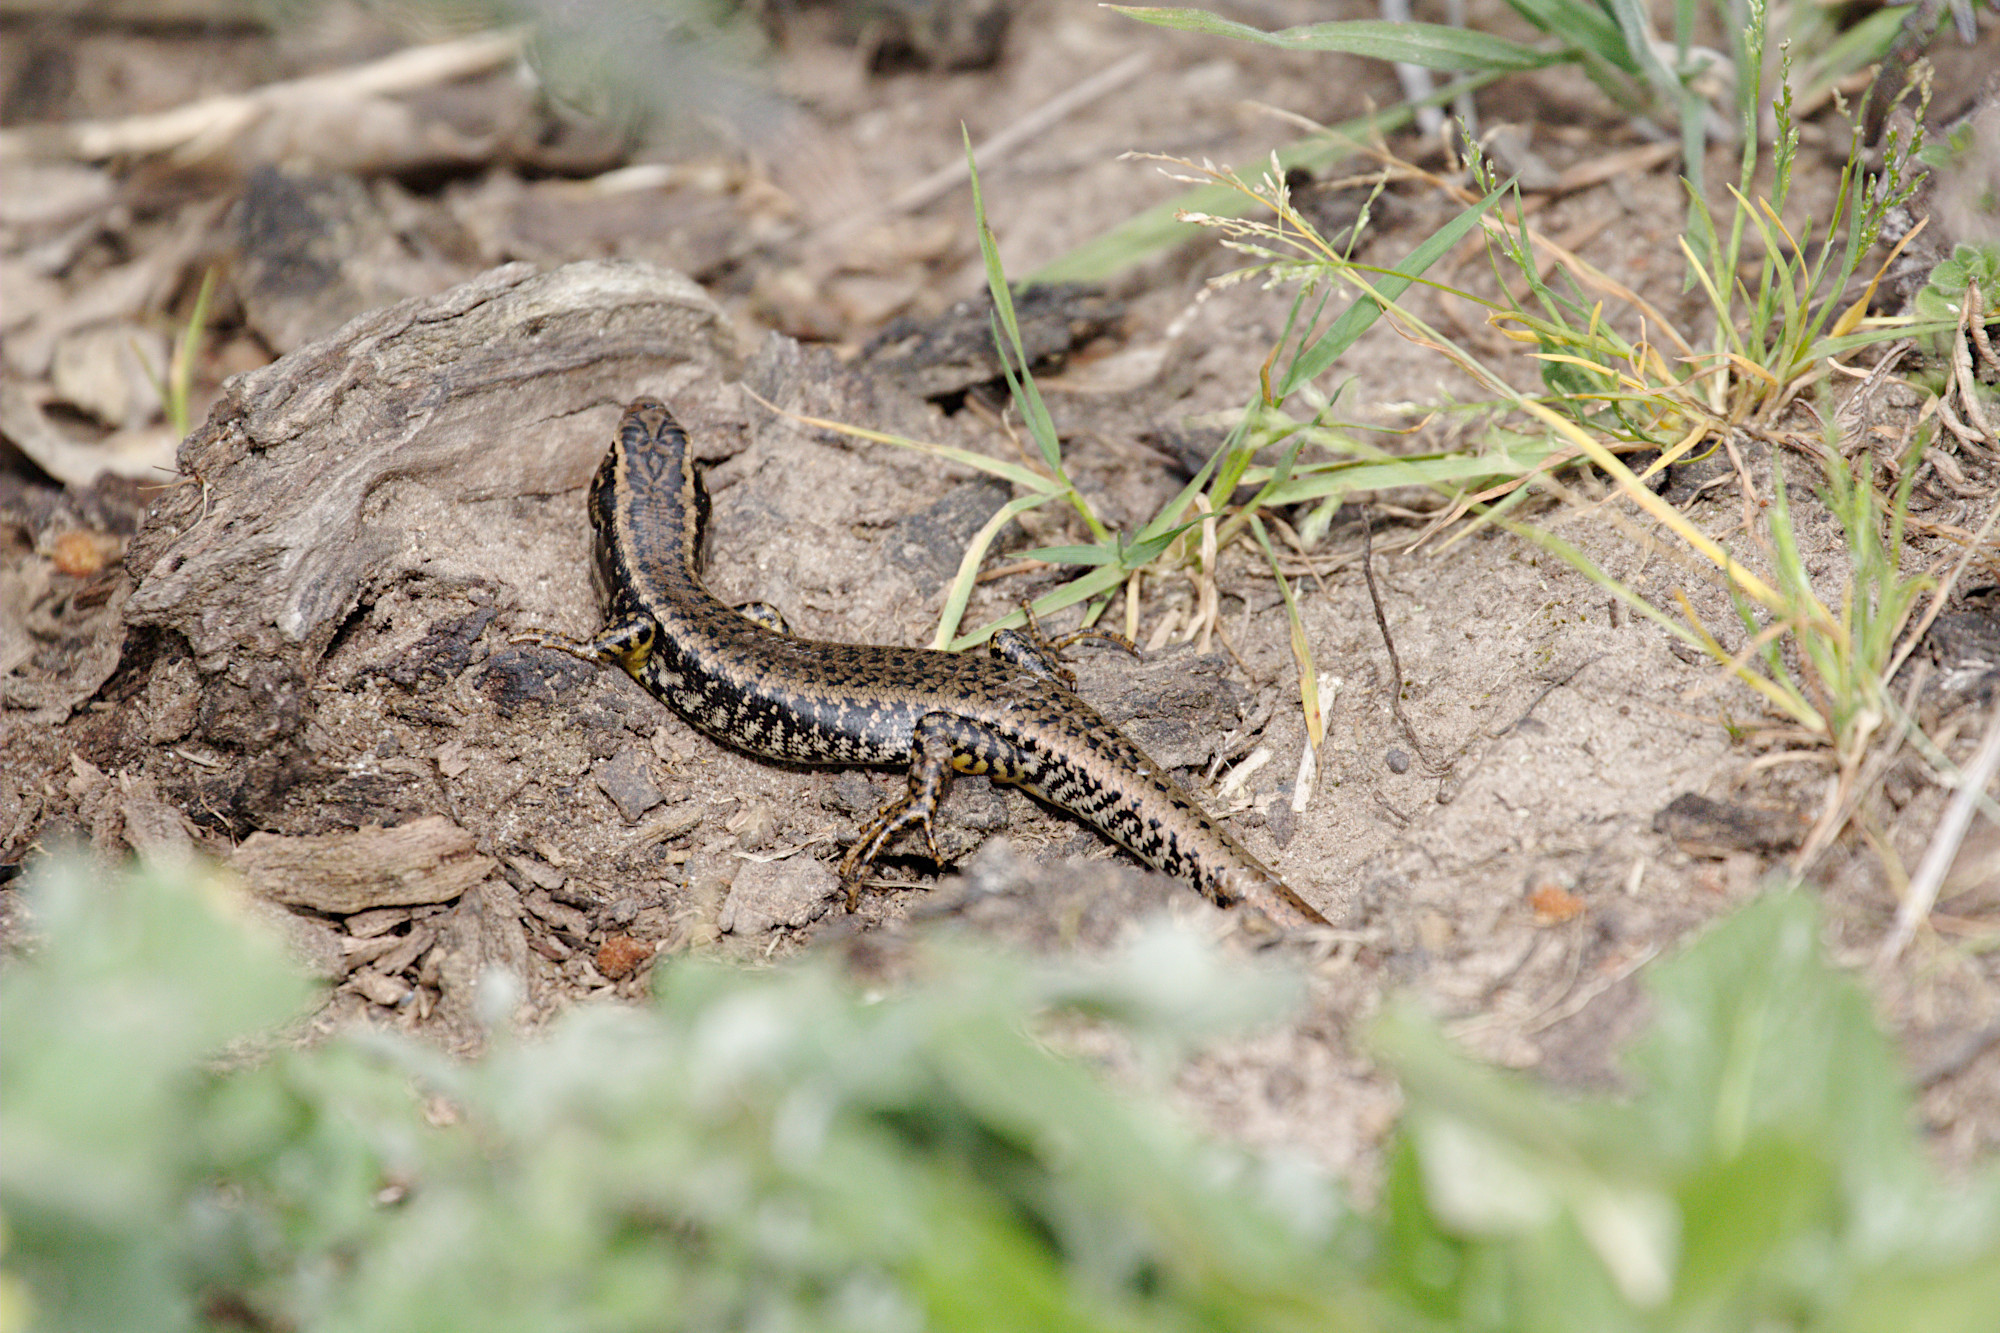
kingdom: Animalia
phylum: Chordata
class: Squamata
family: Scincidae
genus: Eulamprus
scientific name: Eulamprus heatwolei
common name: Warm-temperate water-skink
